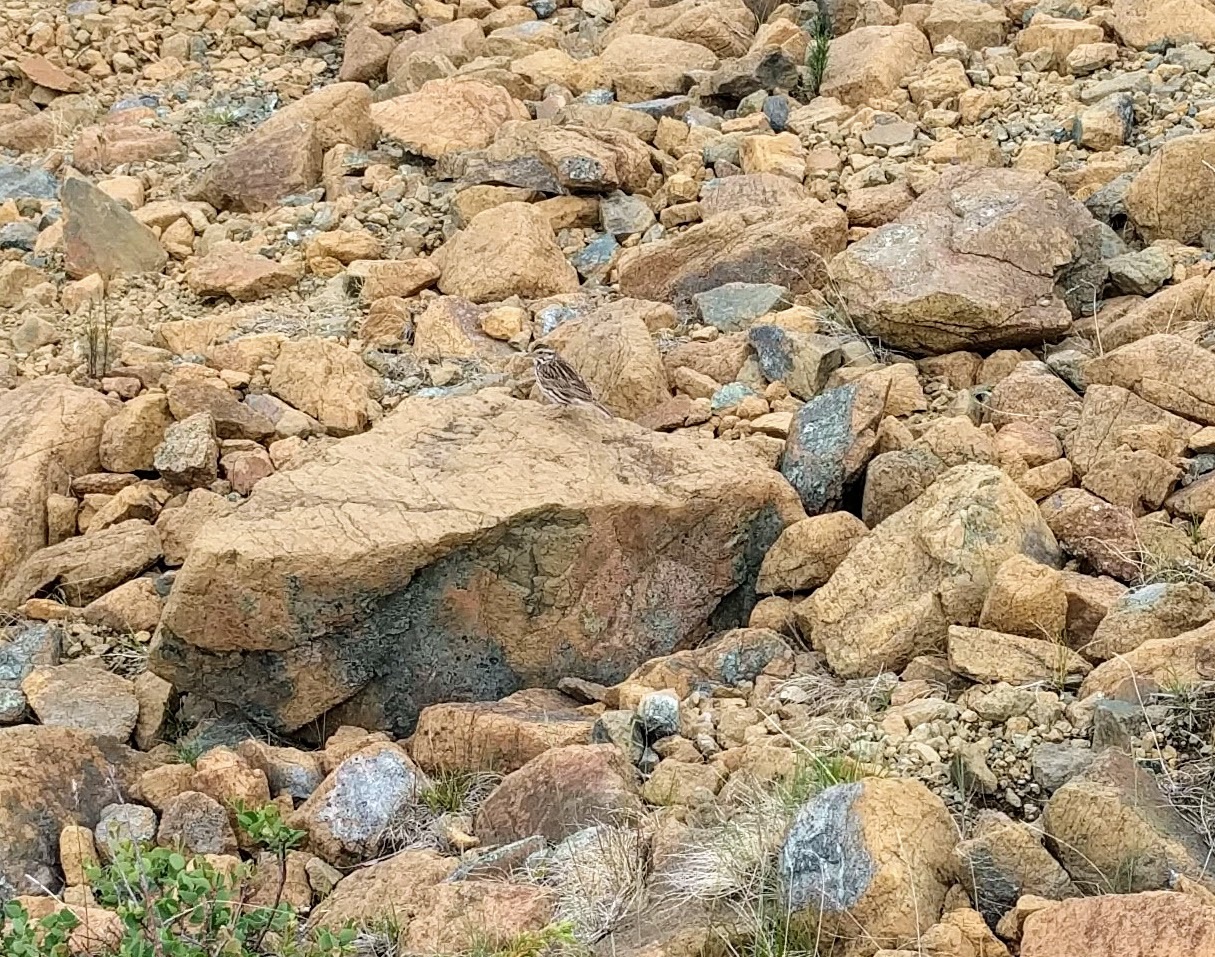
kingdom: Animalia
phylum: Chordata
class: Aves
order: Passeriformes
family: Passerellidae
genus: Passerculus
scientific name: Passerculus sandwichensis
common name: Savannah sparrow
